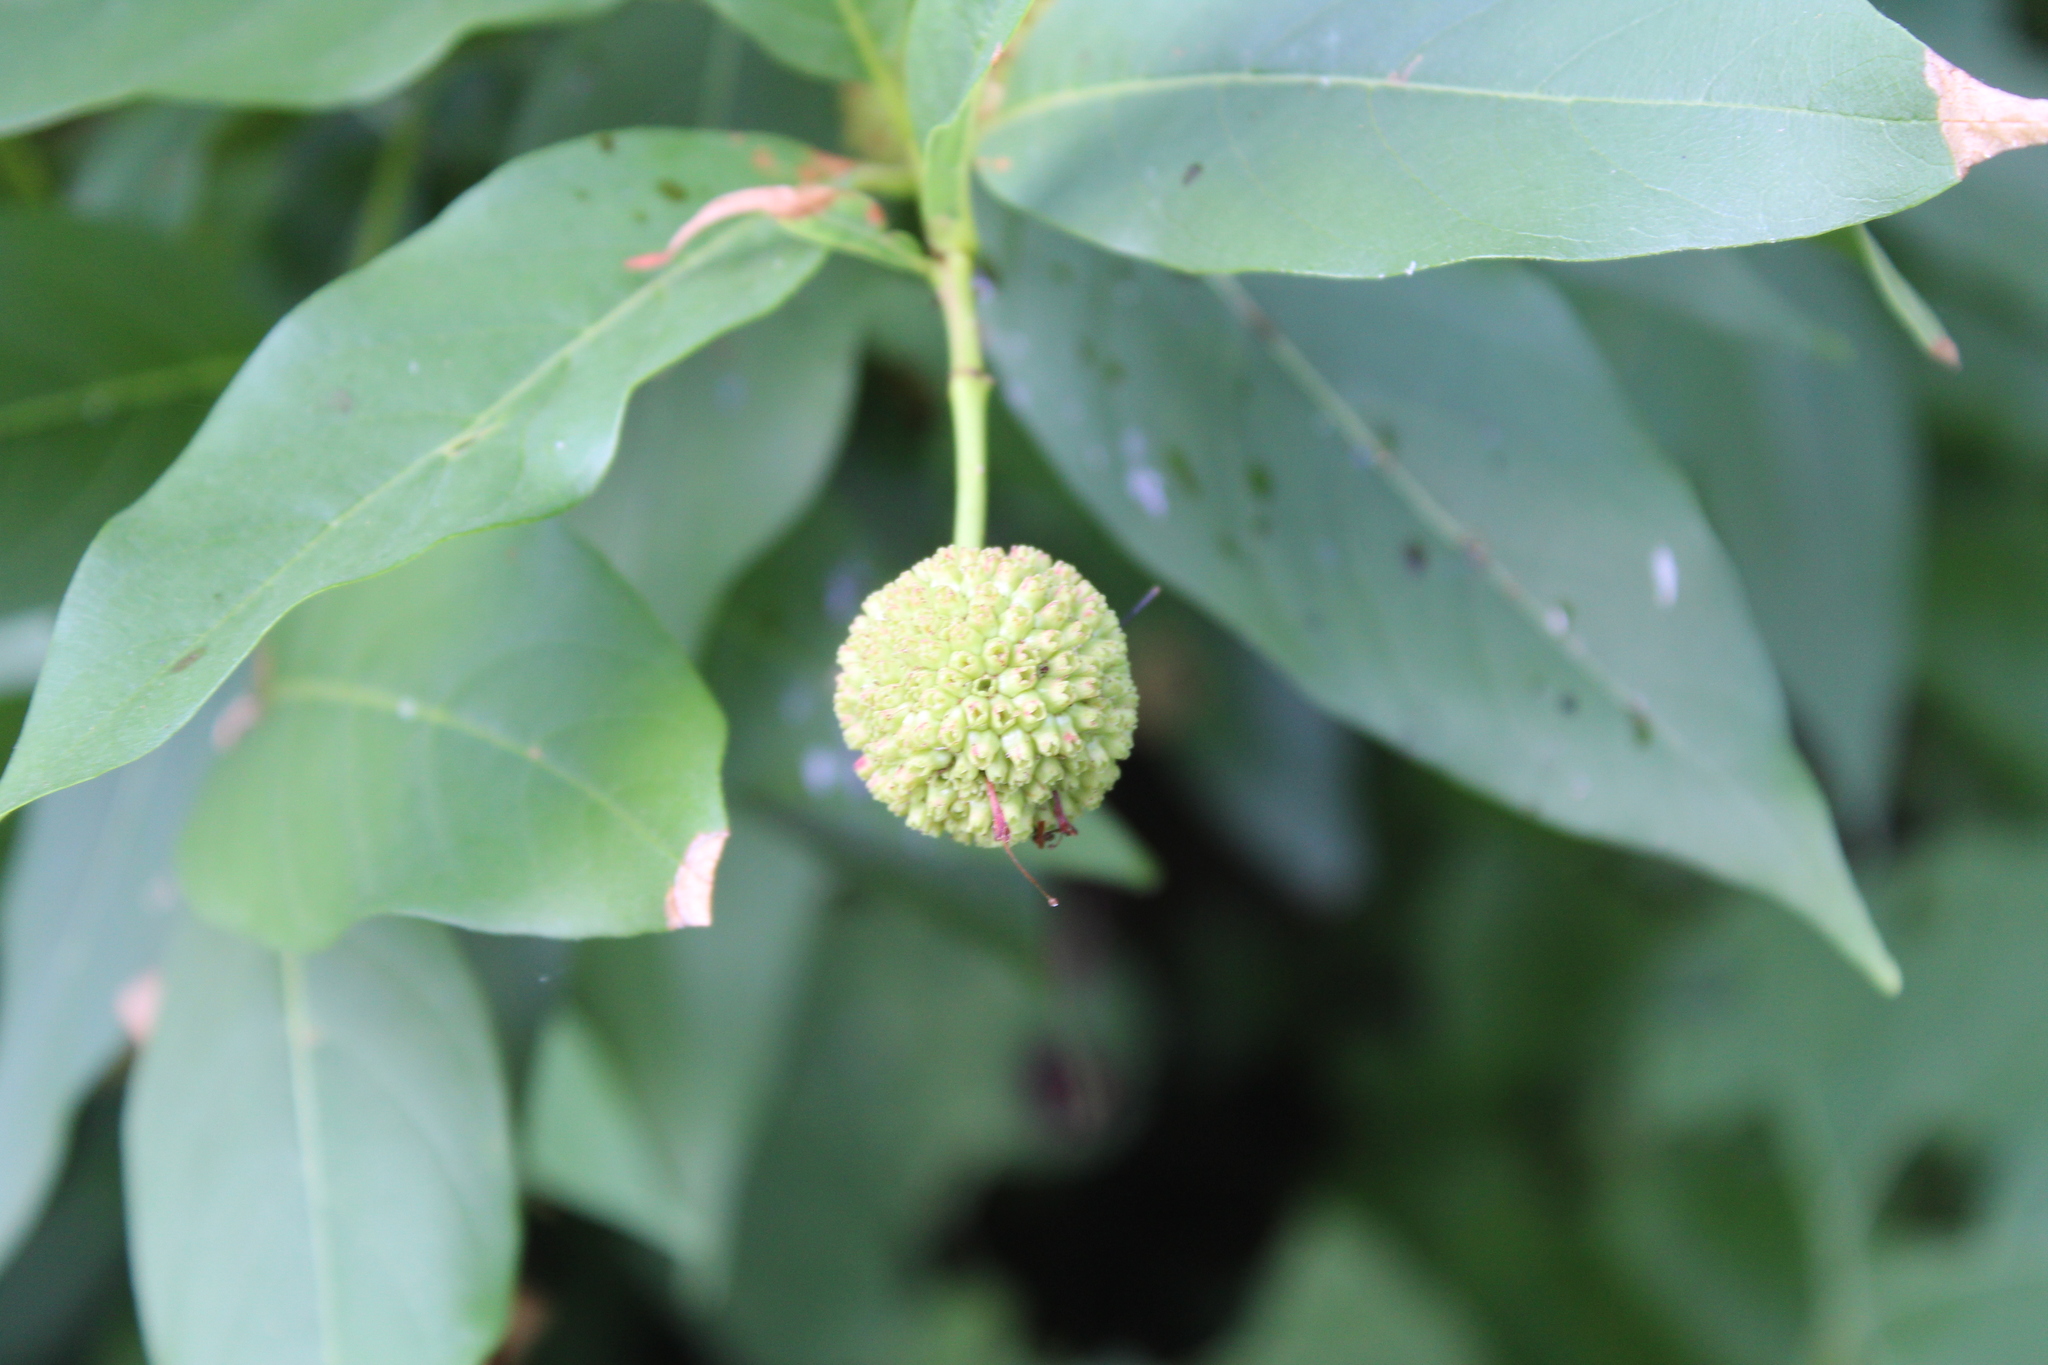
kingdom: Plantae
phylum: Tracheophyta
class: Magnoliopsida
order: Gentianales
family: Rubiaceae
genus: Cephalanthus
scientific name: Cephalanthus occidentalis
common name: Button-willow
